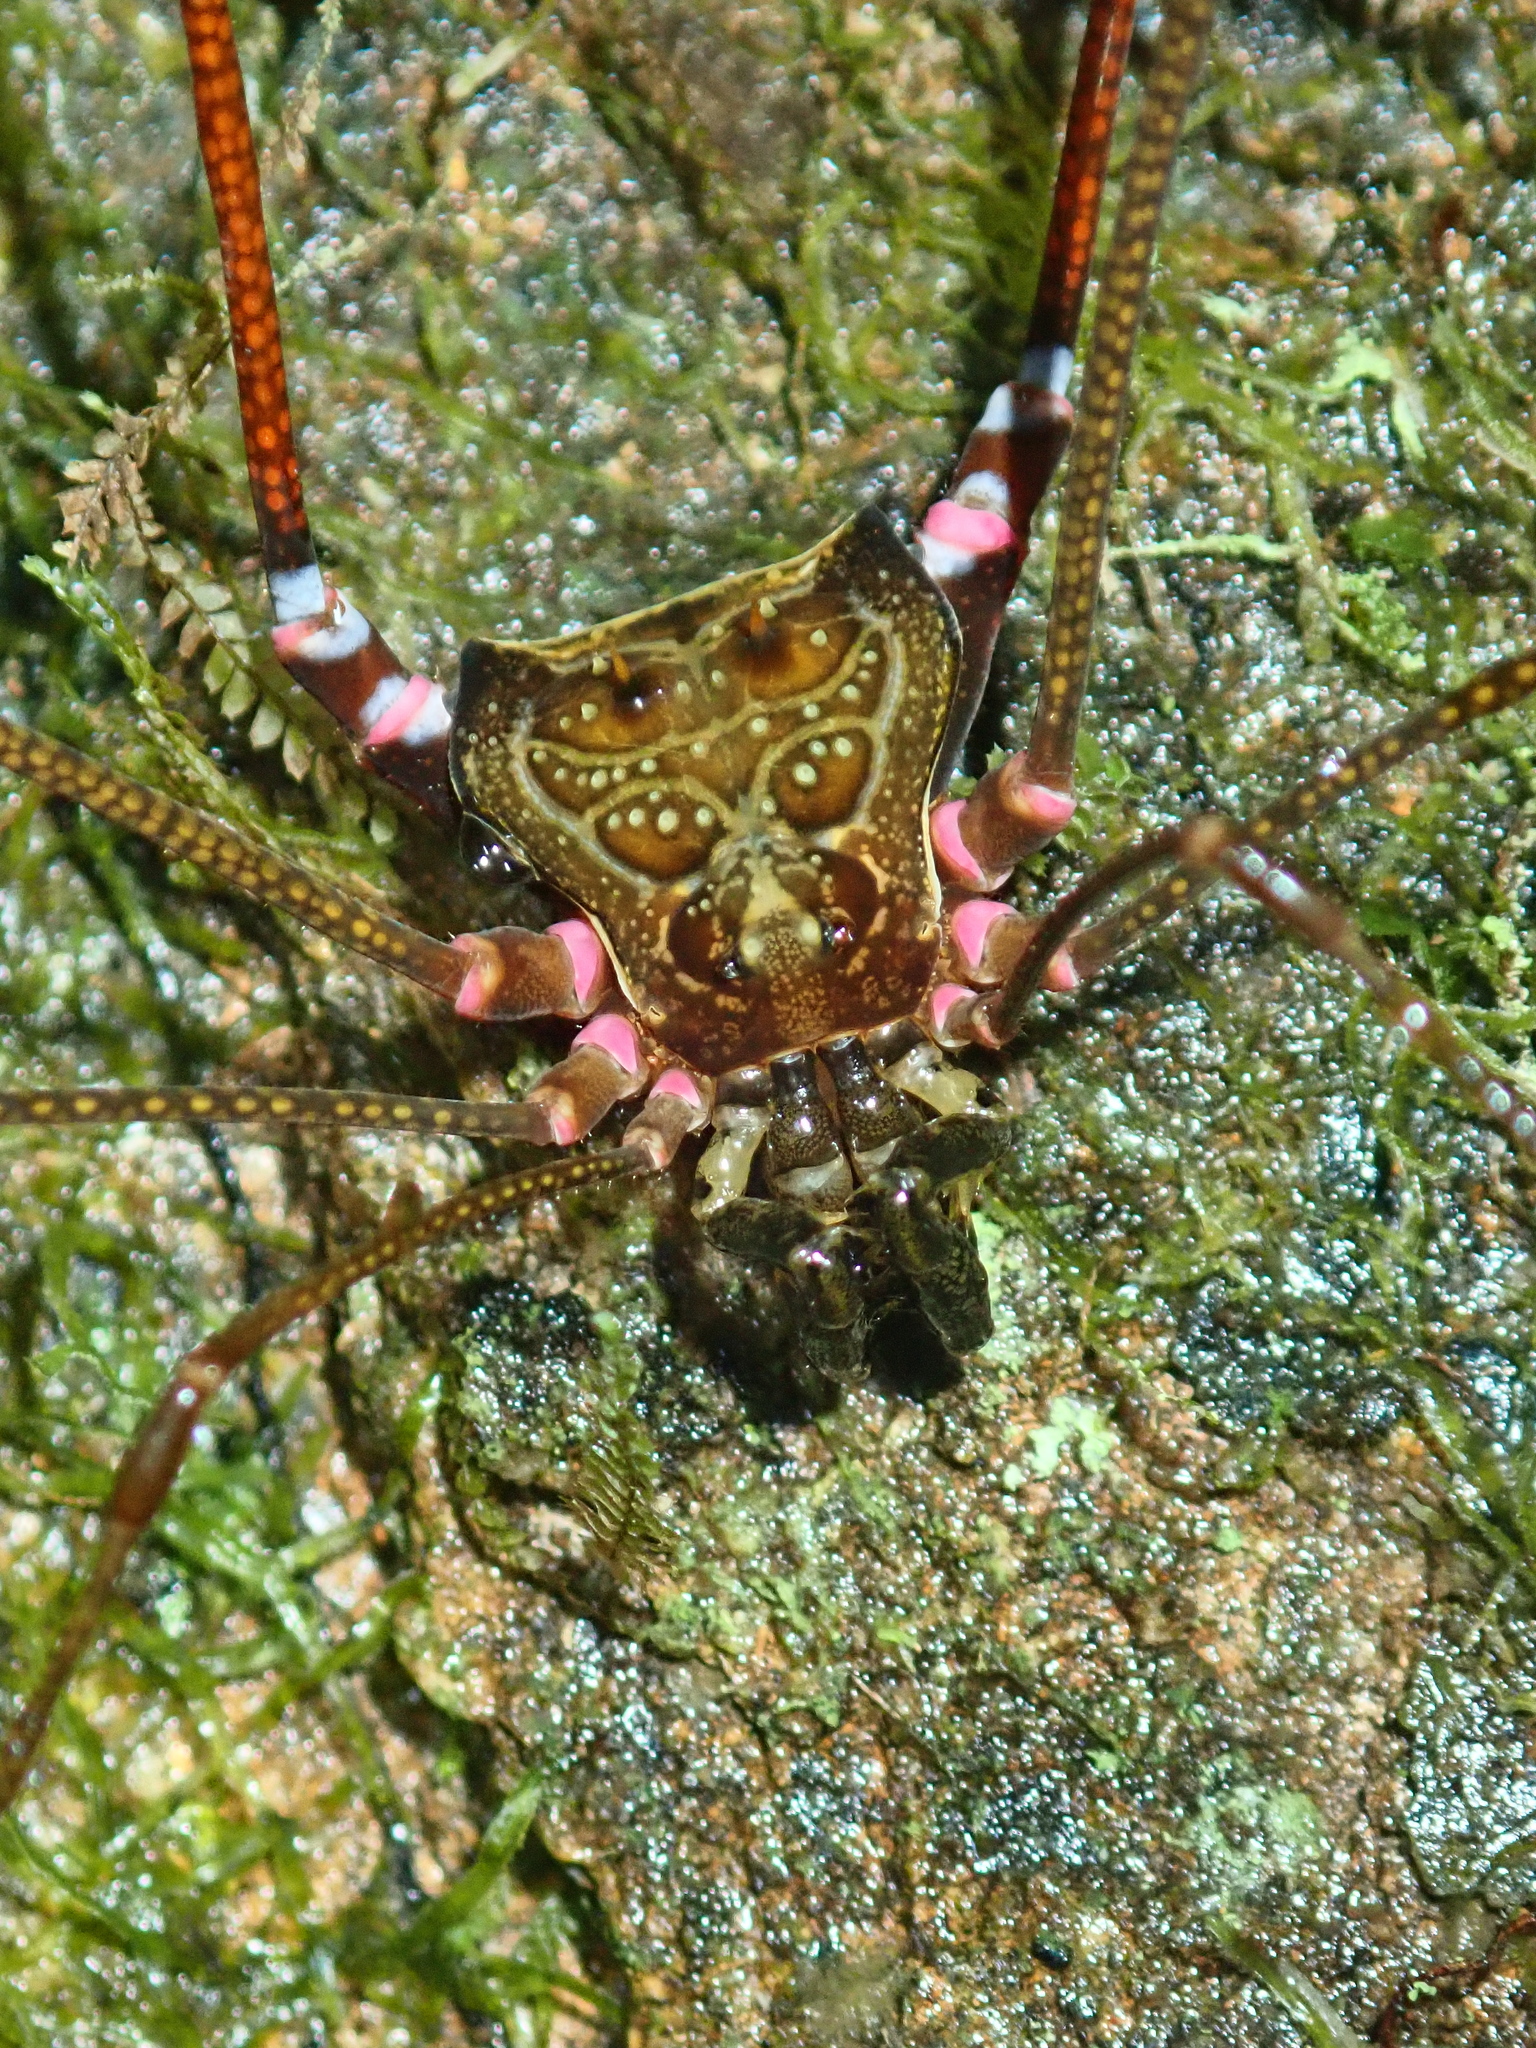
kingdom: Animalia
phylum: Arthropoda
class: Arachnida
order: Opiliones
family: Gonyleptidae
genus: Serracutisoma
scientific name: Serracutisoma inerme
